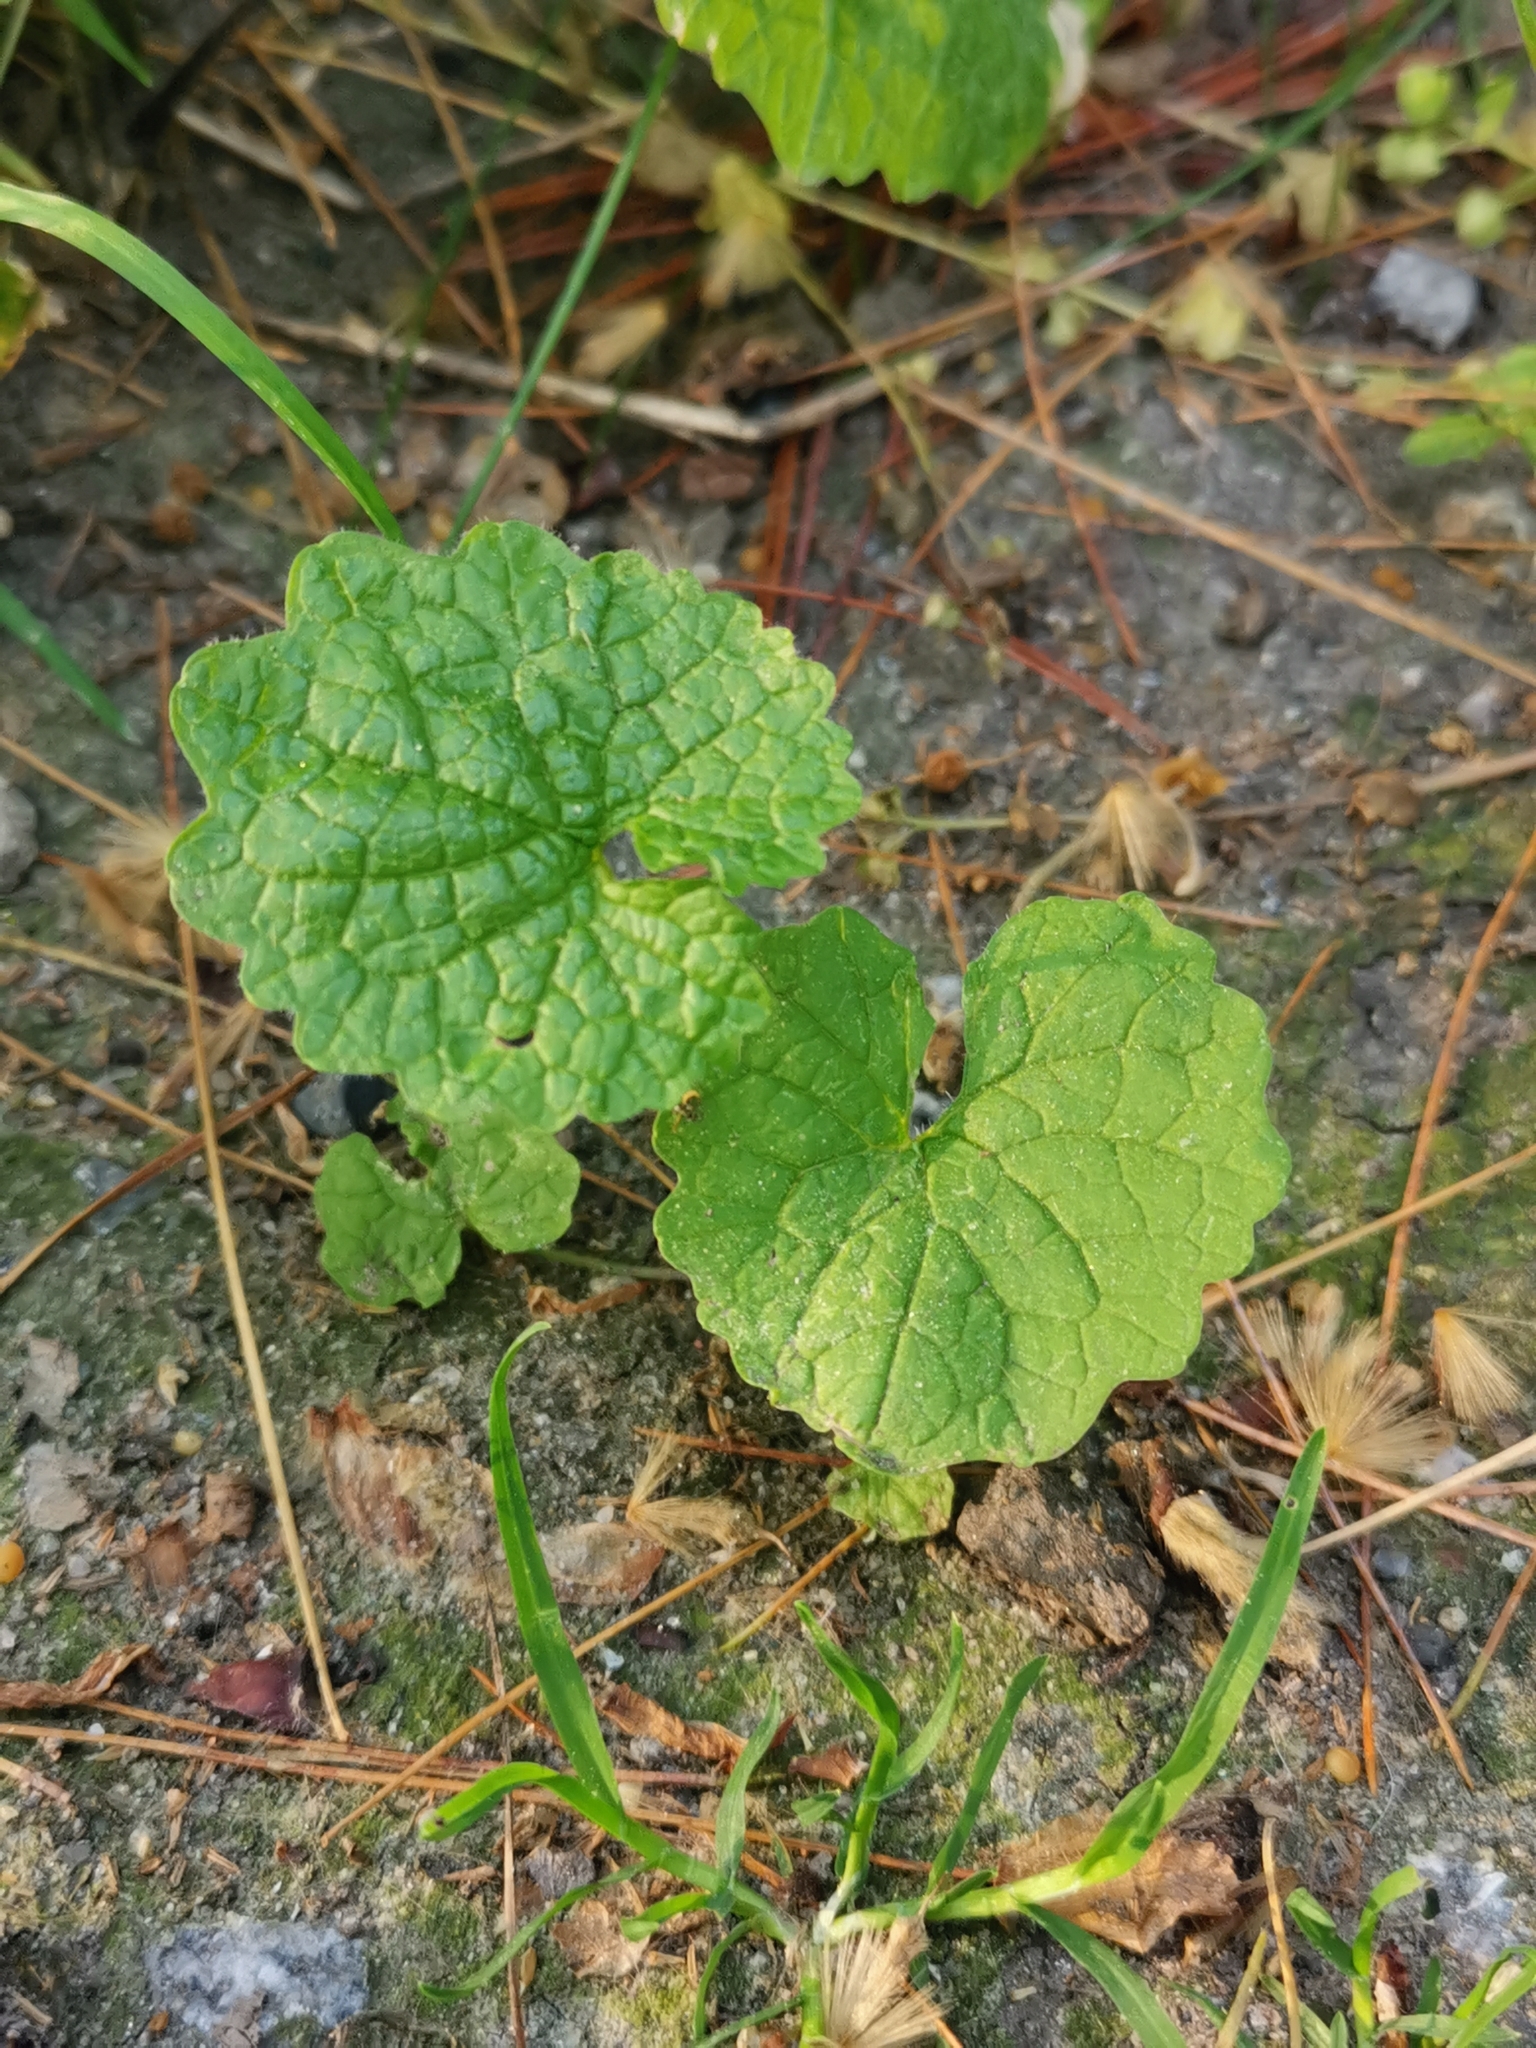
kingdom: Plantae
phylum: Tracheophyta
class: Magnoliopsida
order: Brassicales
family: Brassicaceae
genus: Alliaria
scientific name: Alliaria petiolata
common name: Garlic mustard
